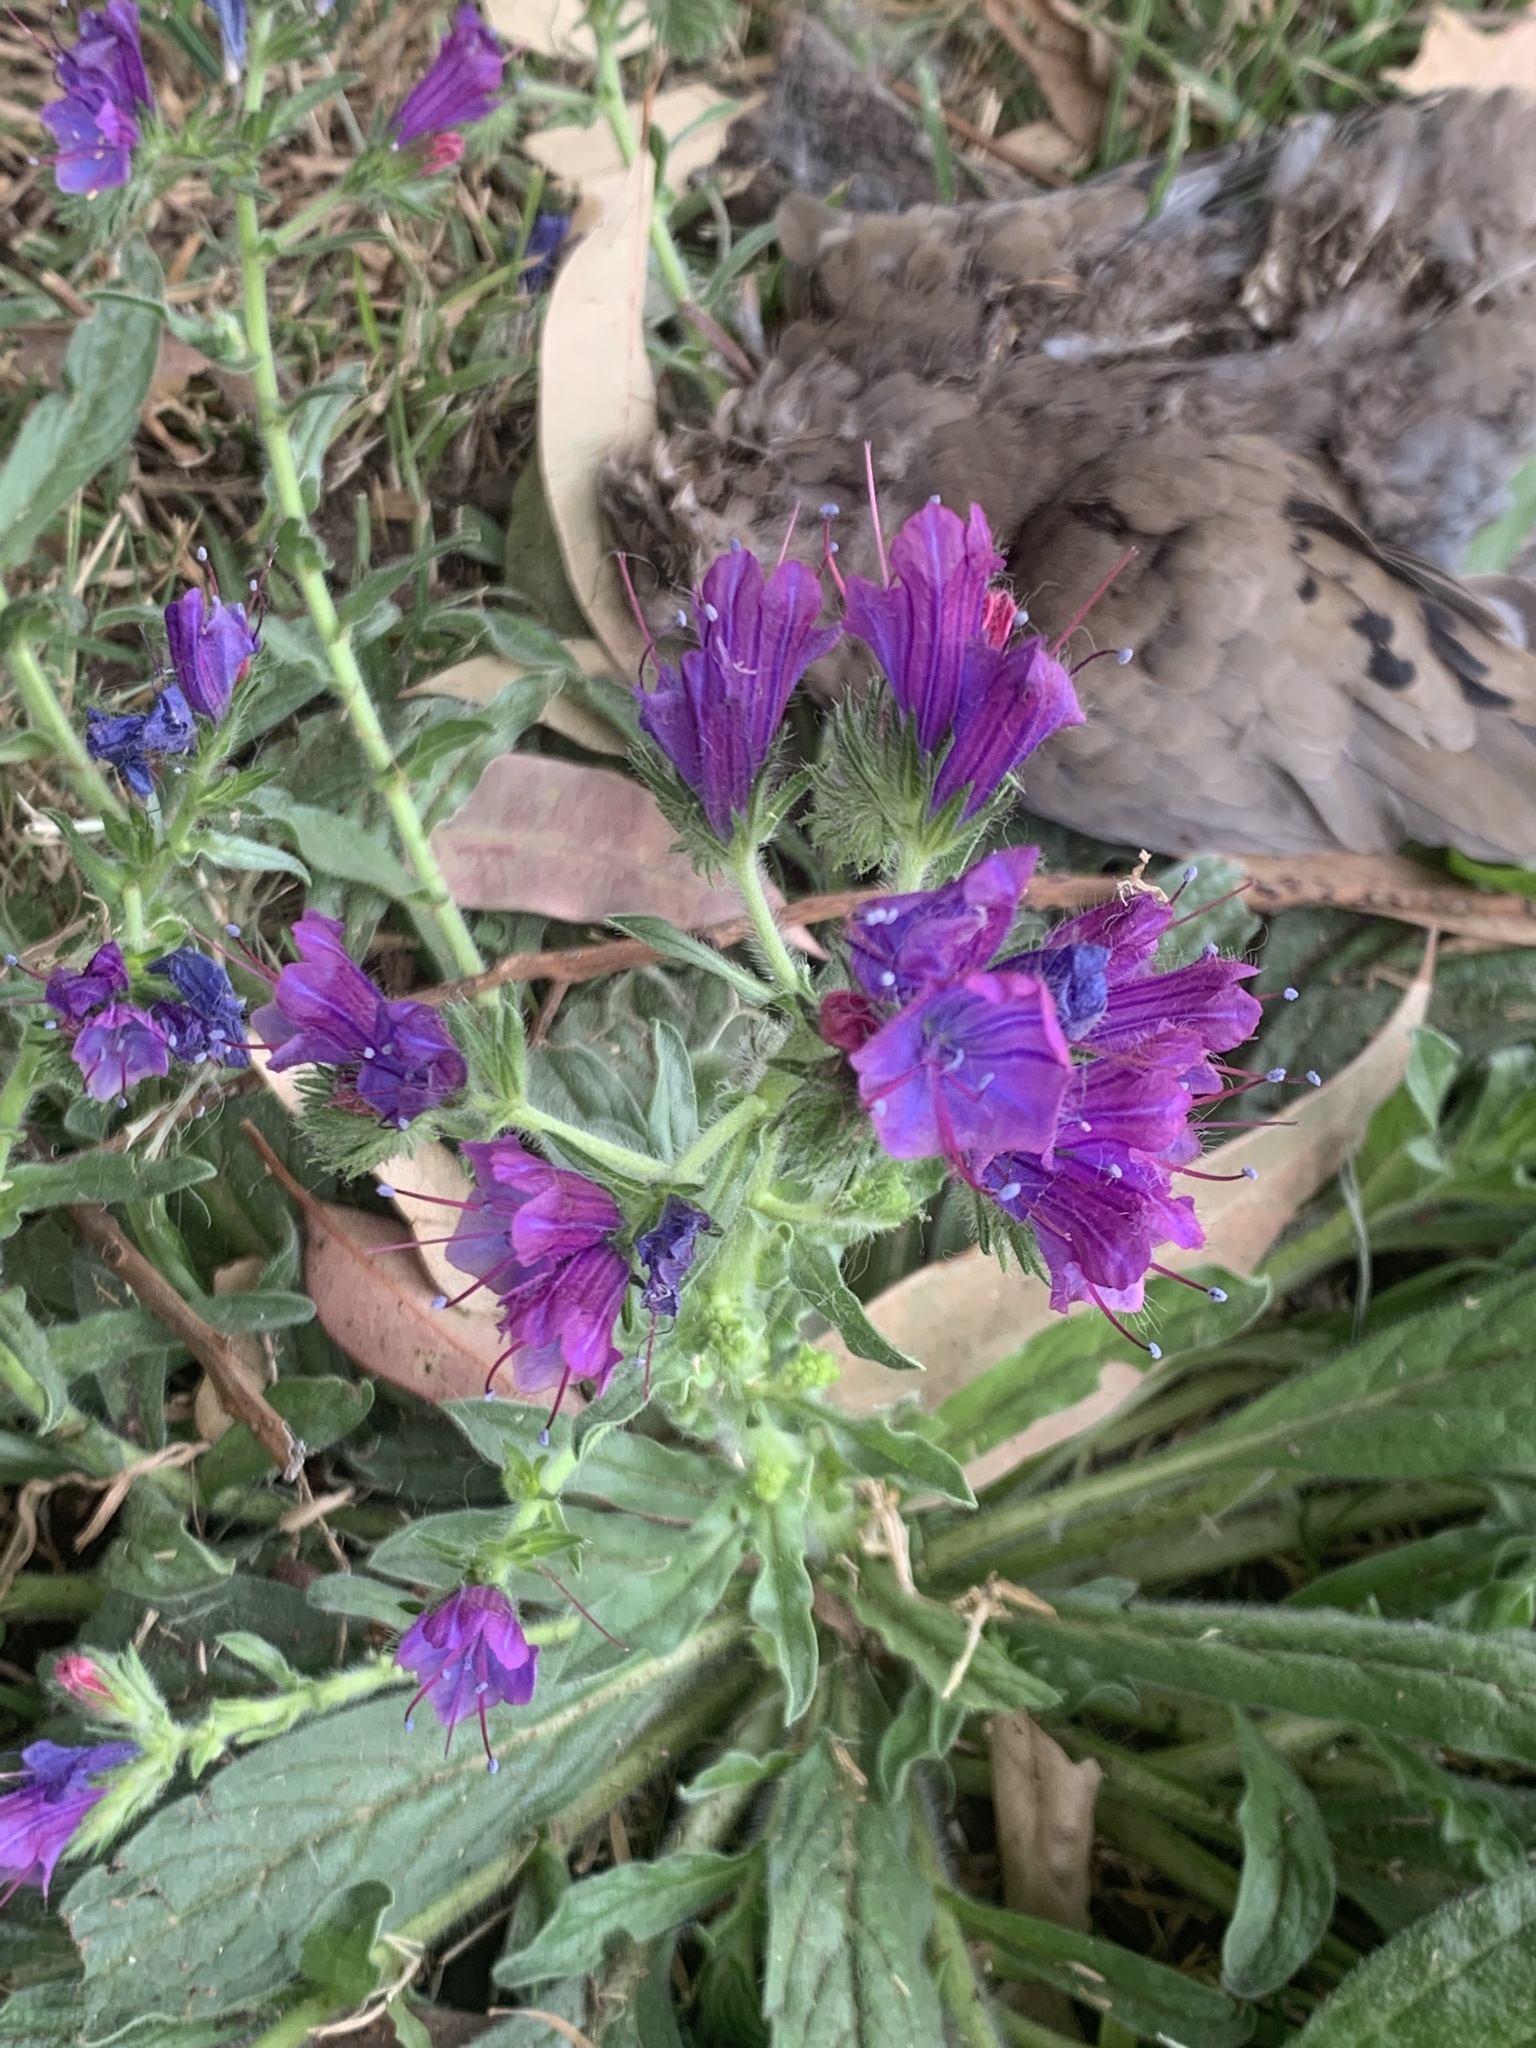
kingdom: Plantae
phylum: Tracheophyta
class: Magnoliopsida
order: Boraginales
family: Boraginaceae
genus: Echium
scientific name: Echium plantagineum
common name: Purple viper's-bugloss
